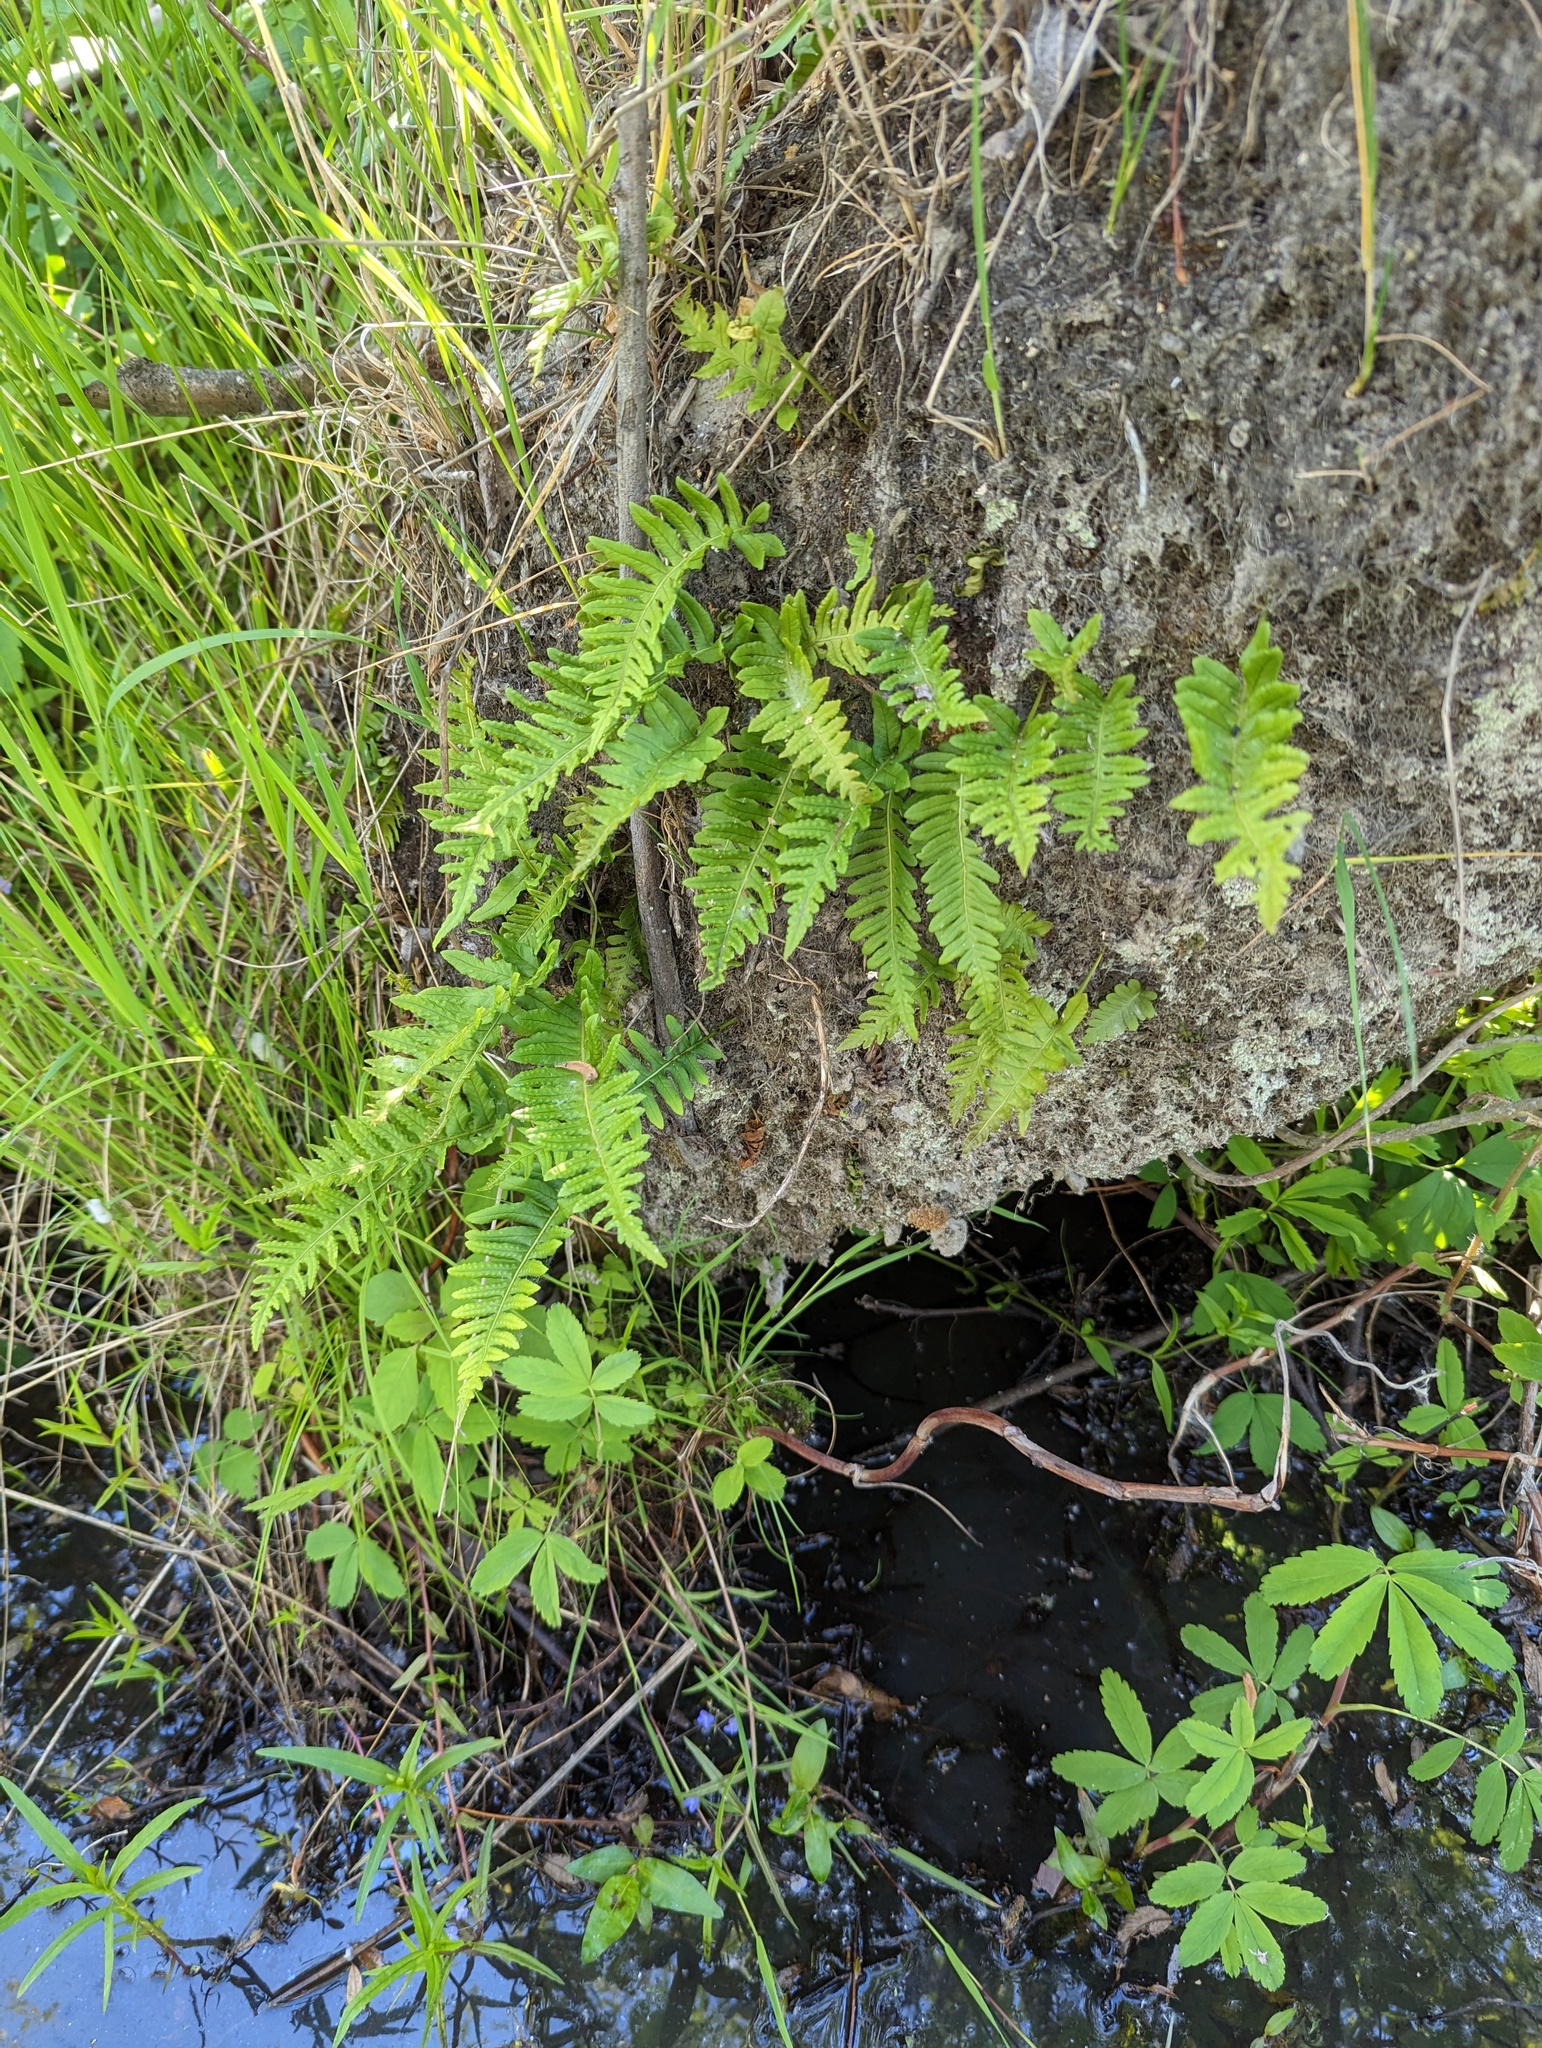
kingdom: Plantae
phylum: Tracheophyta
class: Polypodiopsida
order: Polypodiales
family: Polypodiaceae
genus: Polypodium
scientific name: Polypodium glycyrrhiza
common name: Licorice fern
